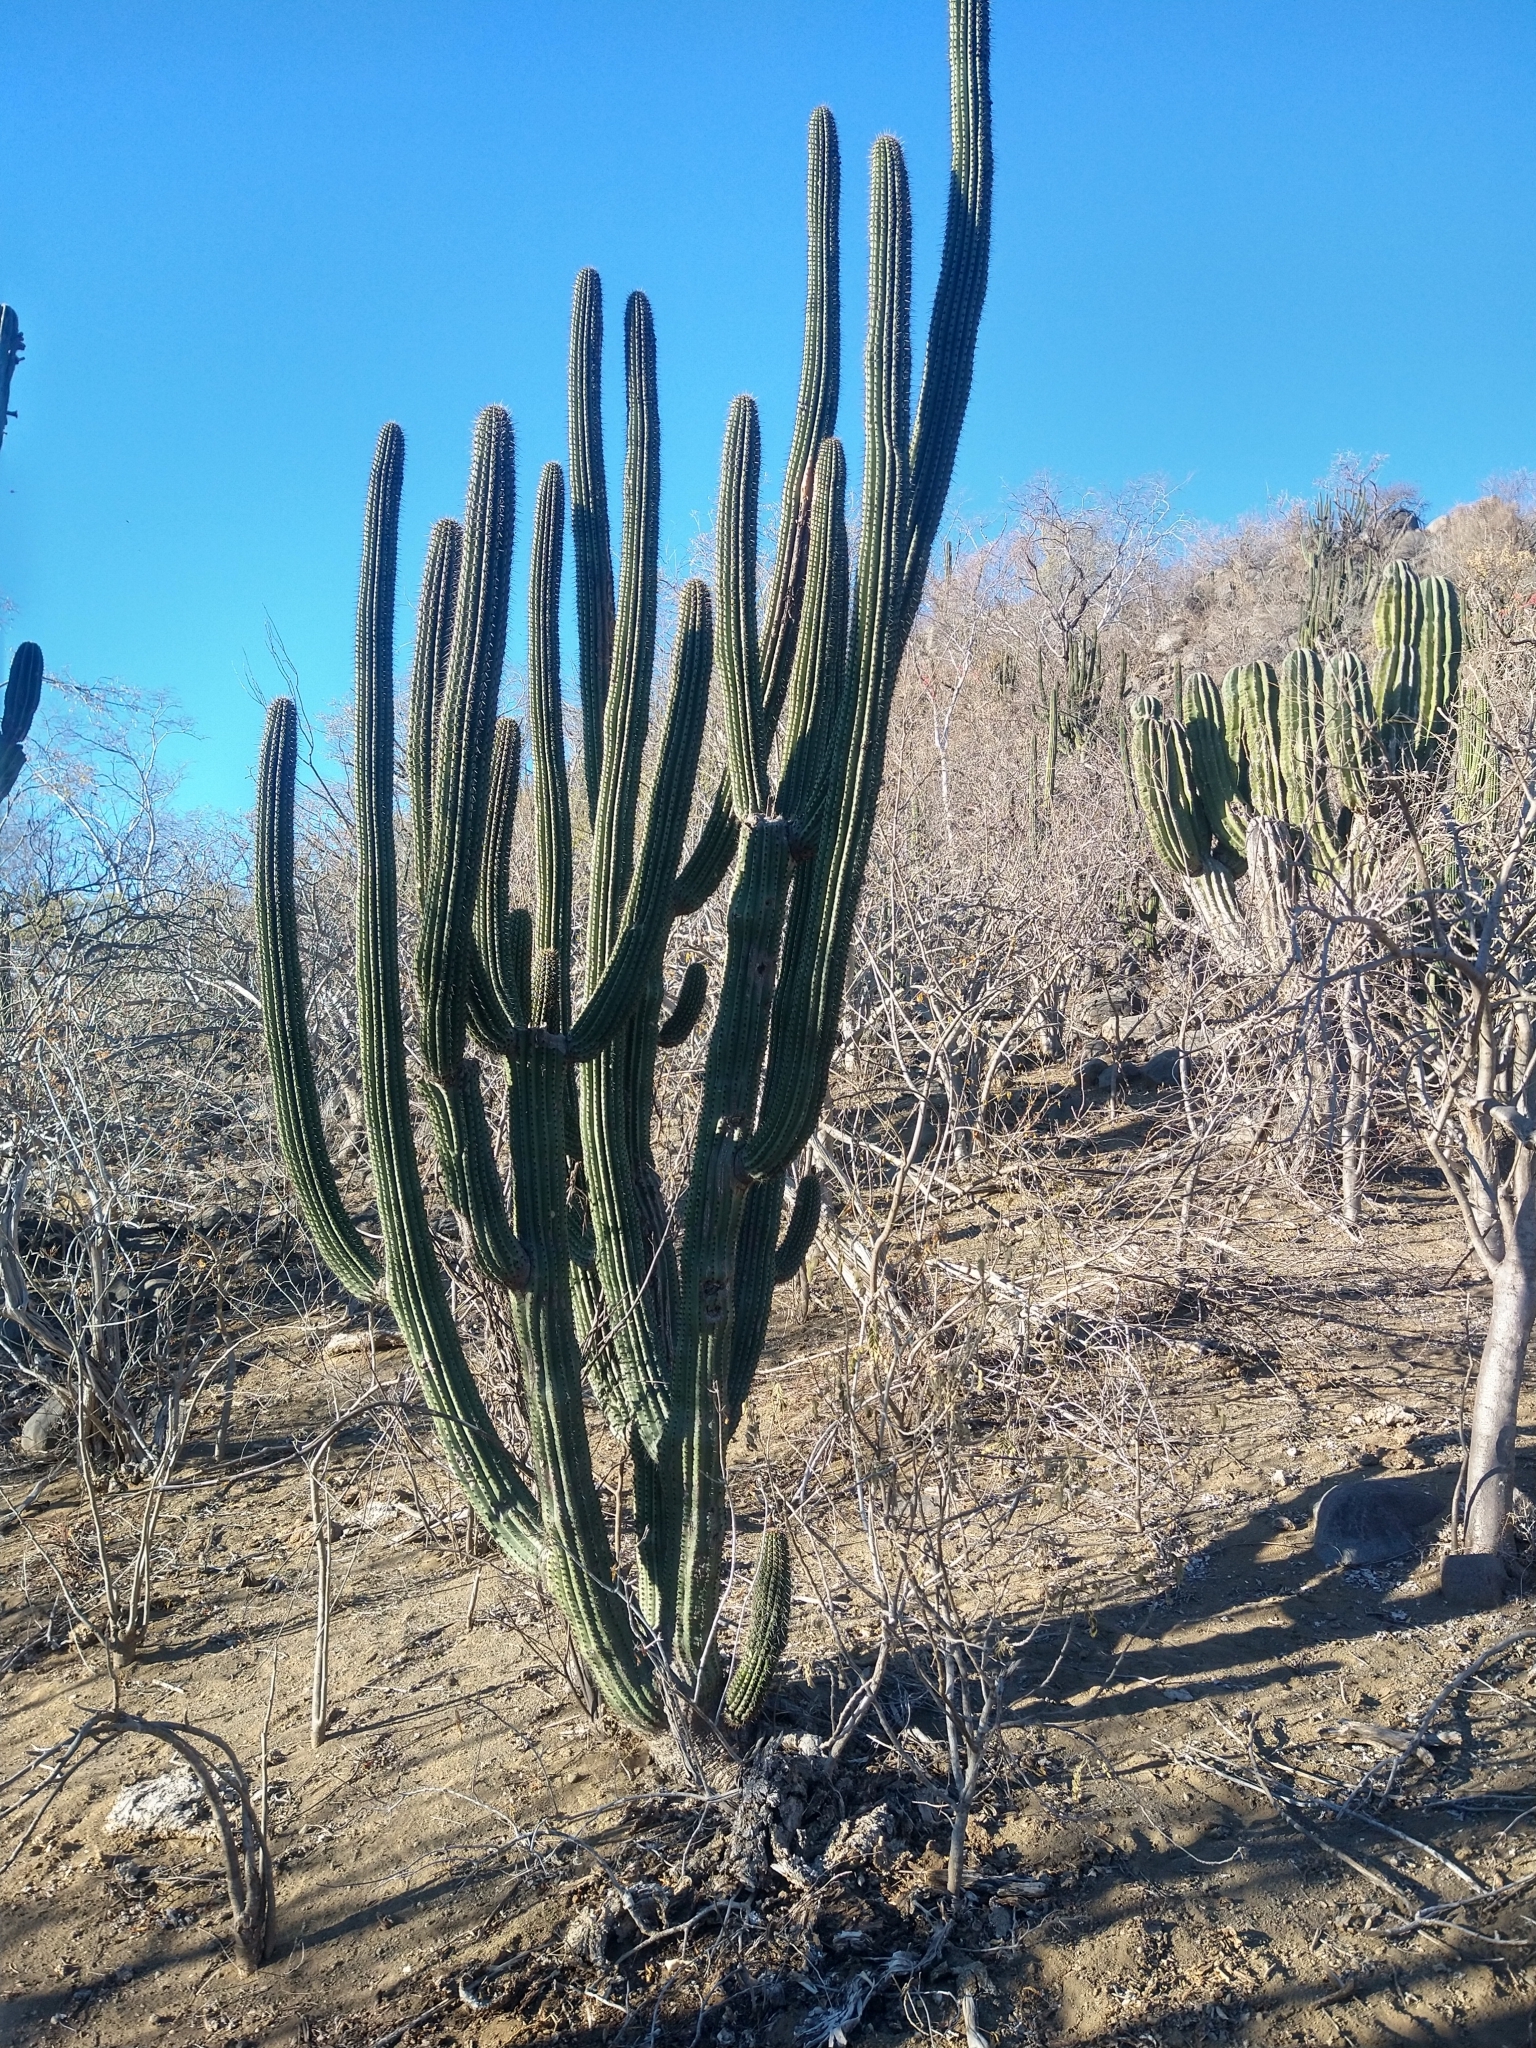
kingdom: Plantae
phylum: Tracheophyta
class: Magnoliopsida
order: Caryophyllales
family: Cactaceae
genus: Stenocereus
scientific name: Stenocereus thurberi
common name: Organ pipe cactus
